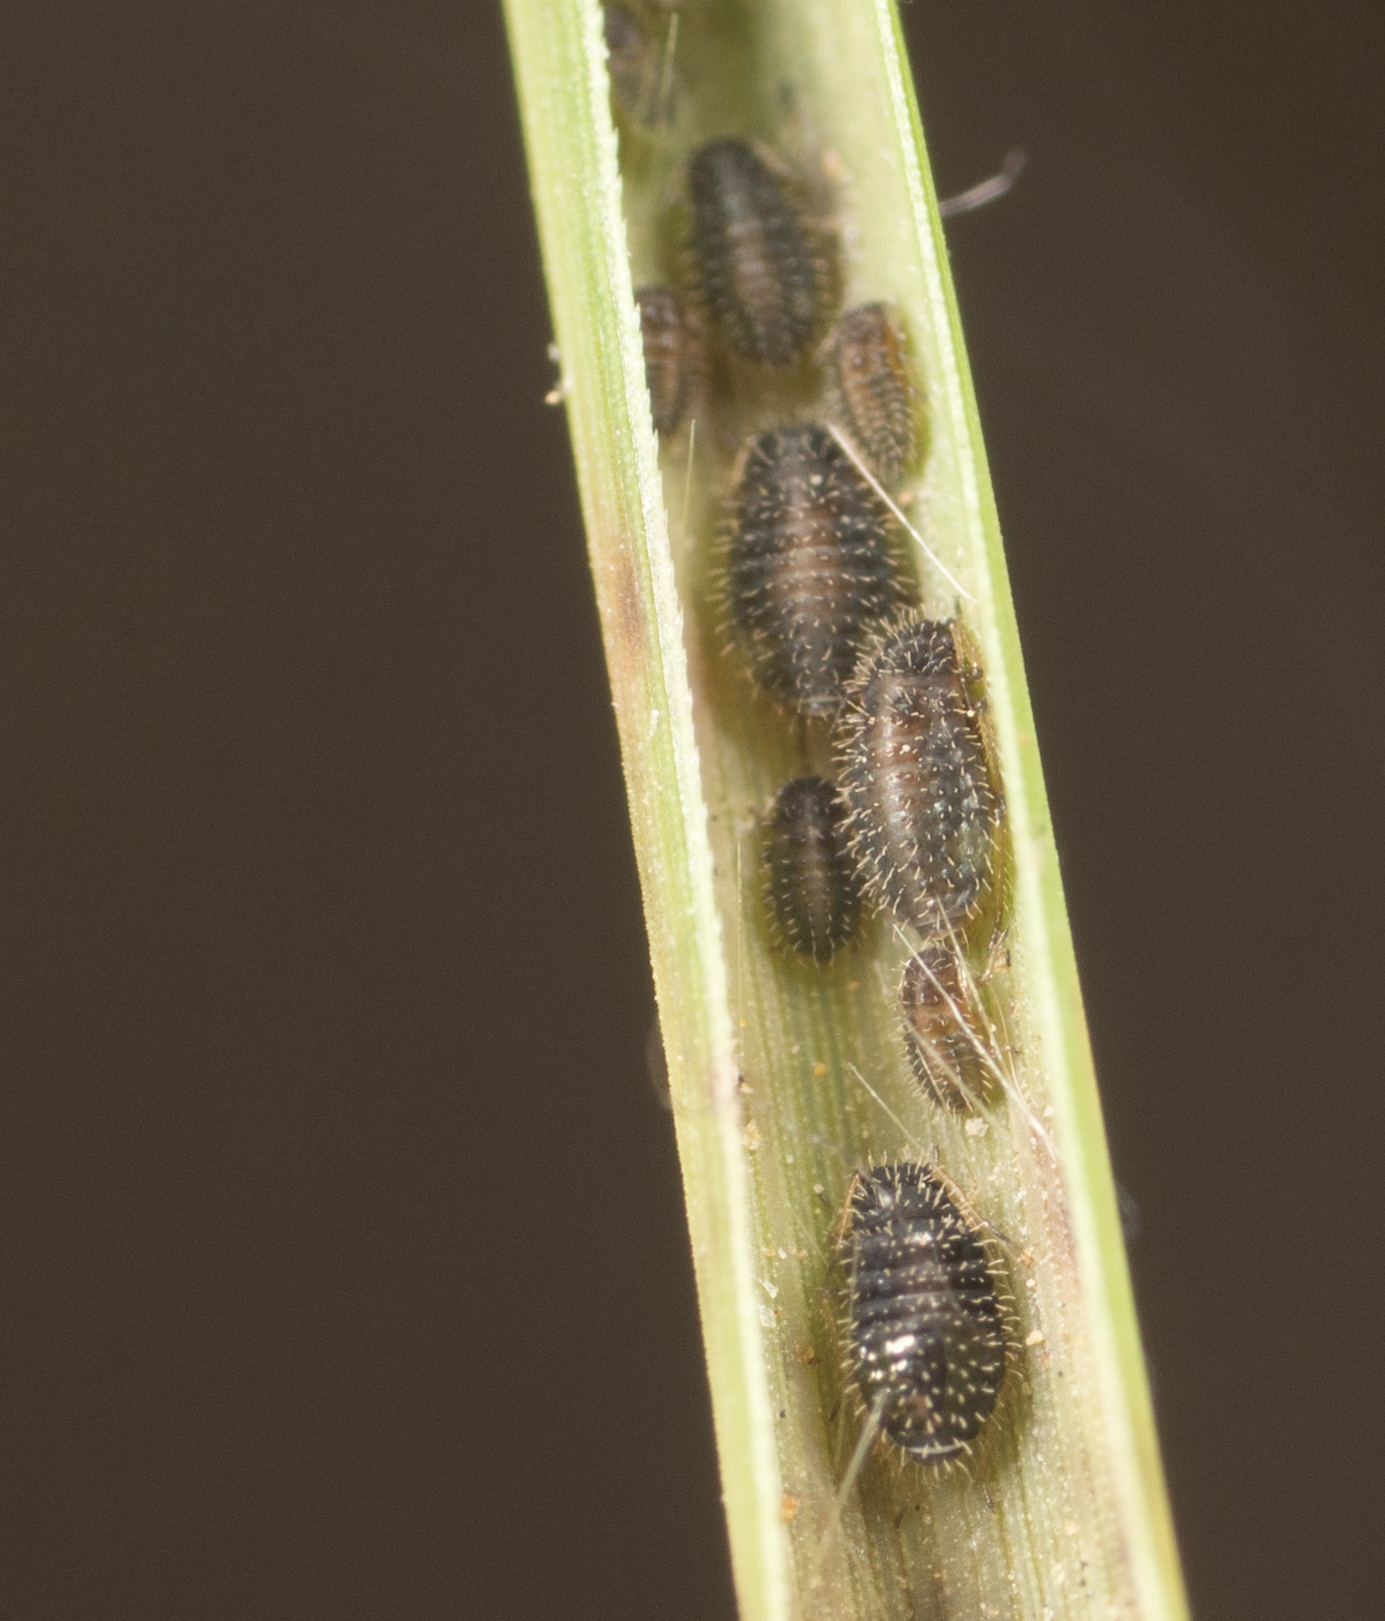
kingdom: Animalia
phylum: Arthropoda
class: Insecta
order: Hemiptera
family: Aphididae
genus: Sipha
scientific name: Sipha maydis
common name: Aphid
